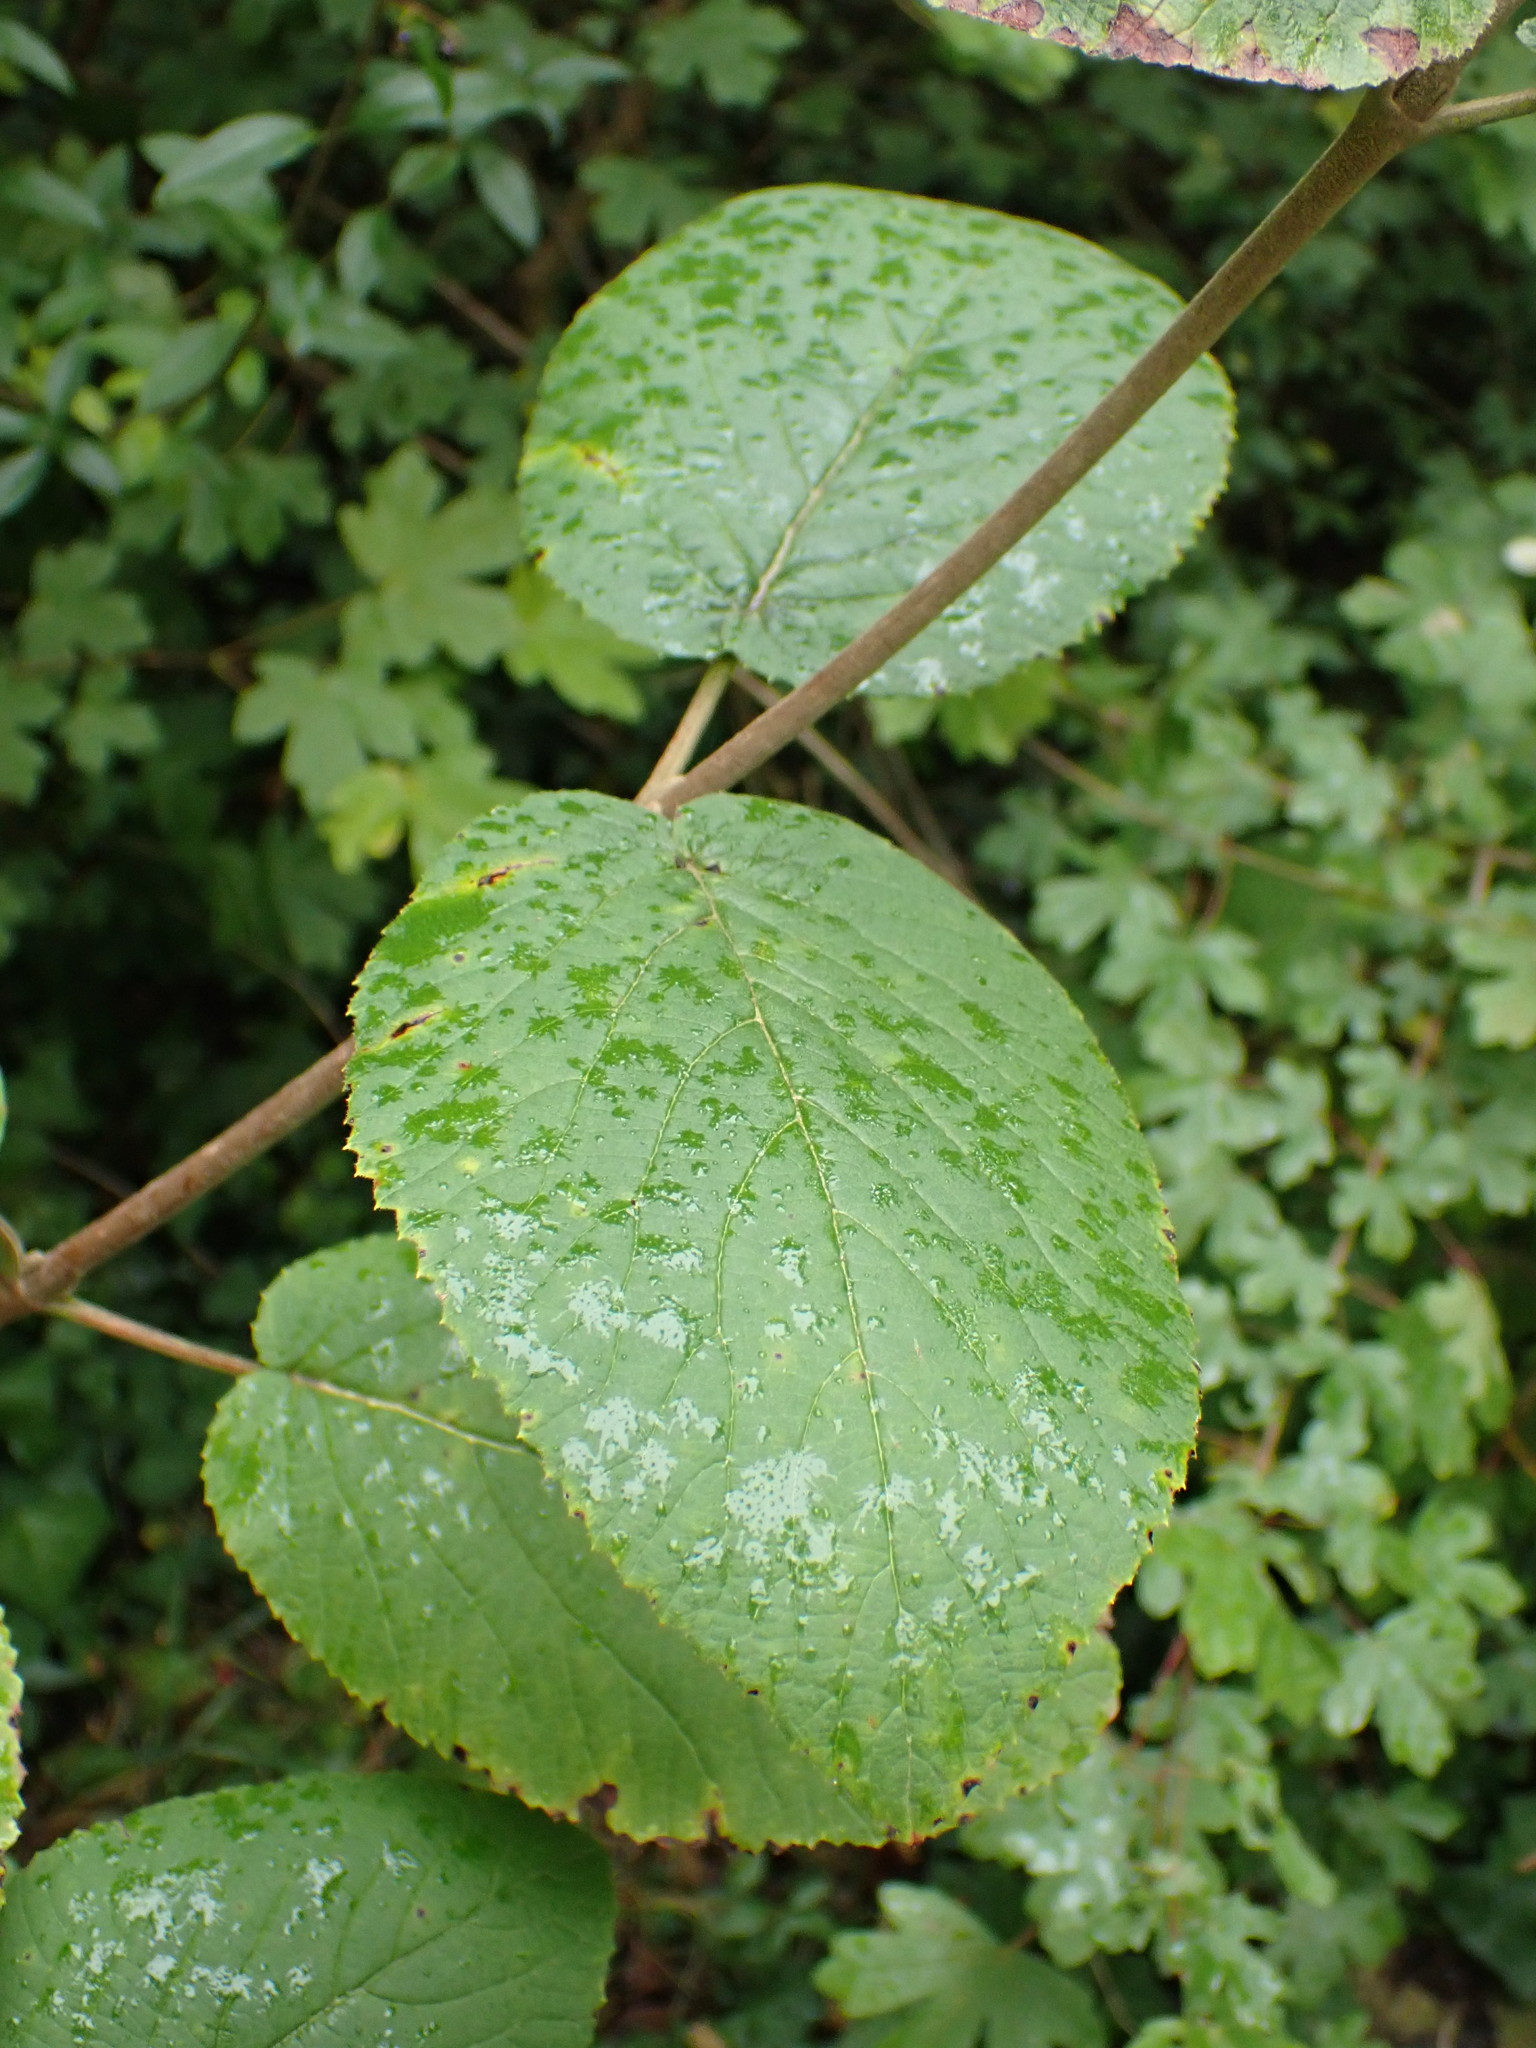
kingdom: Plantae
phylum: Tracheophyta
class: Magnoliopsida
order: Dipsacales
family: Viburnaceae
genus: Viburnum
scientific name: Viburnum lantana
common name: Wayfaring tree
